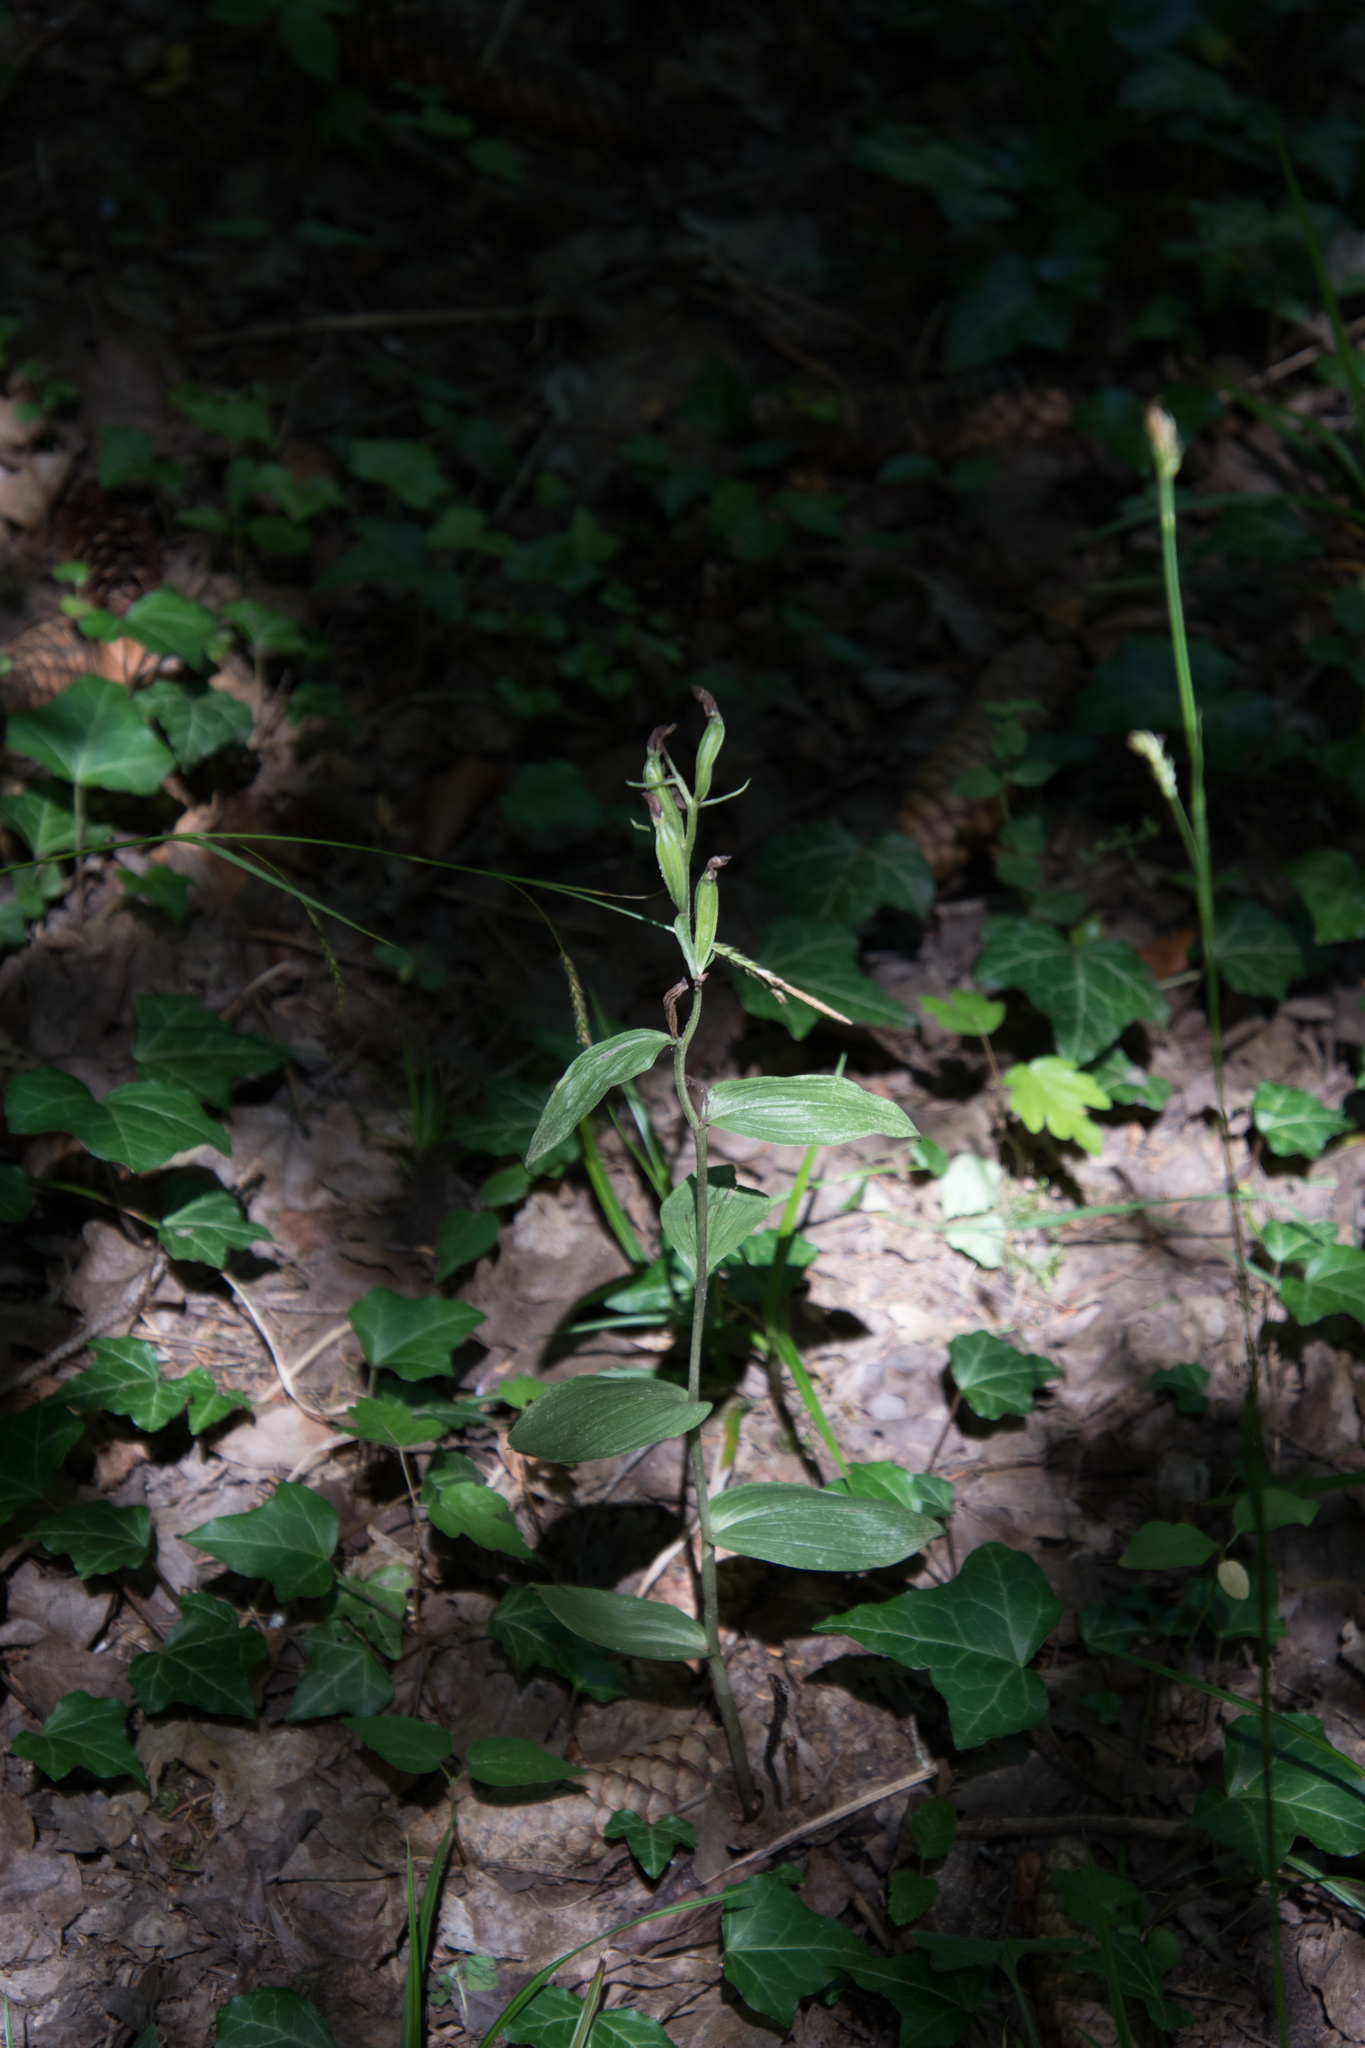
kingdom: Plantae
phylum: Tracheophyta
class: Liliopsida
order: Asparagales
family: Orchidaceae
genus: Cephalanthera
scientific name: Cephalanthera damasonium
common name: White helleborine
